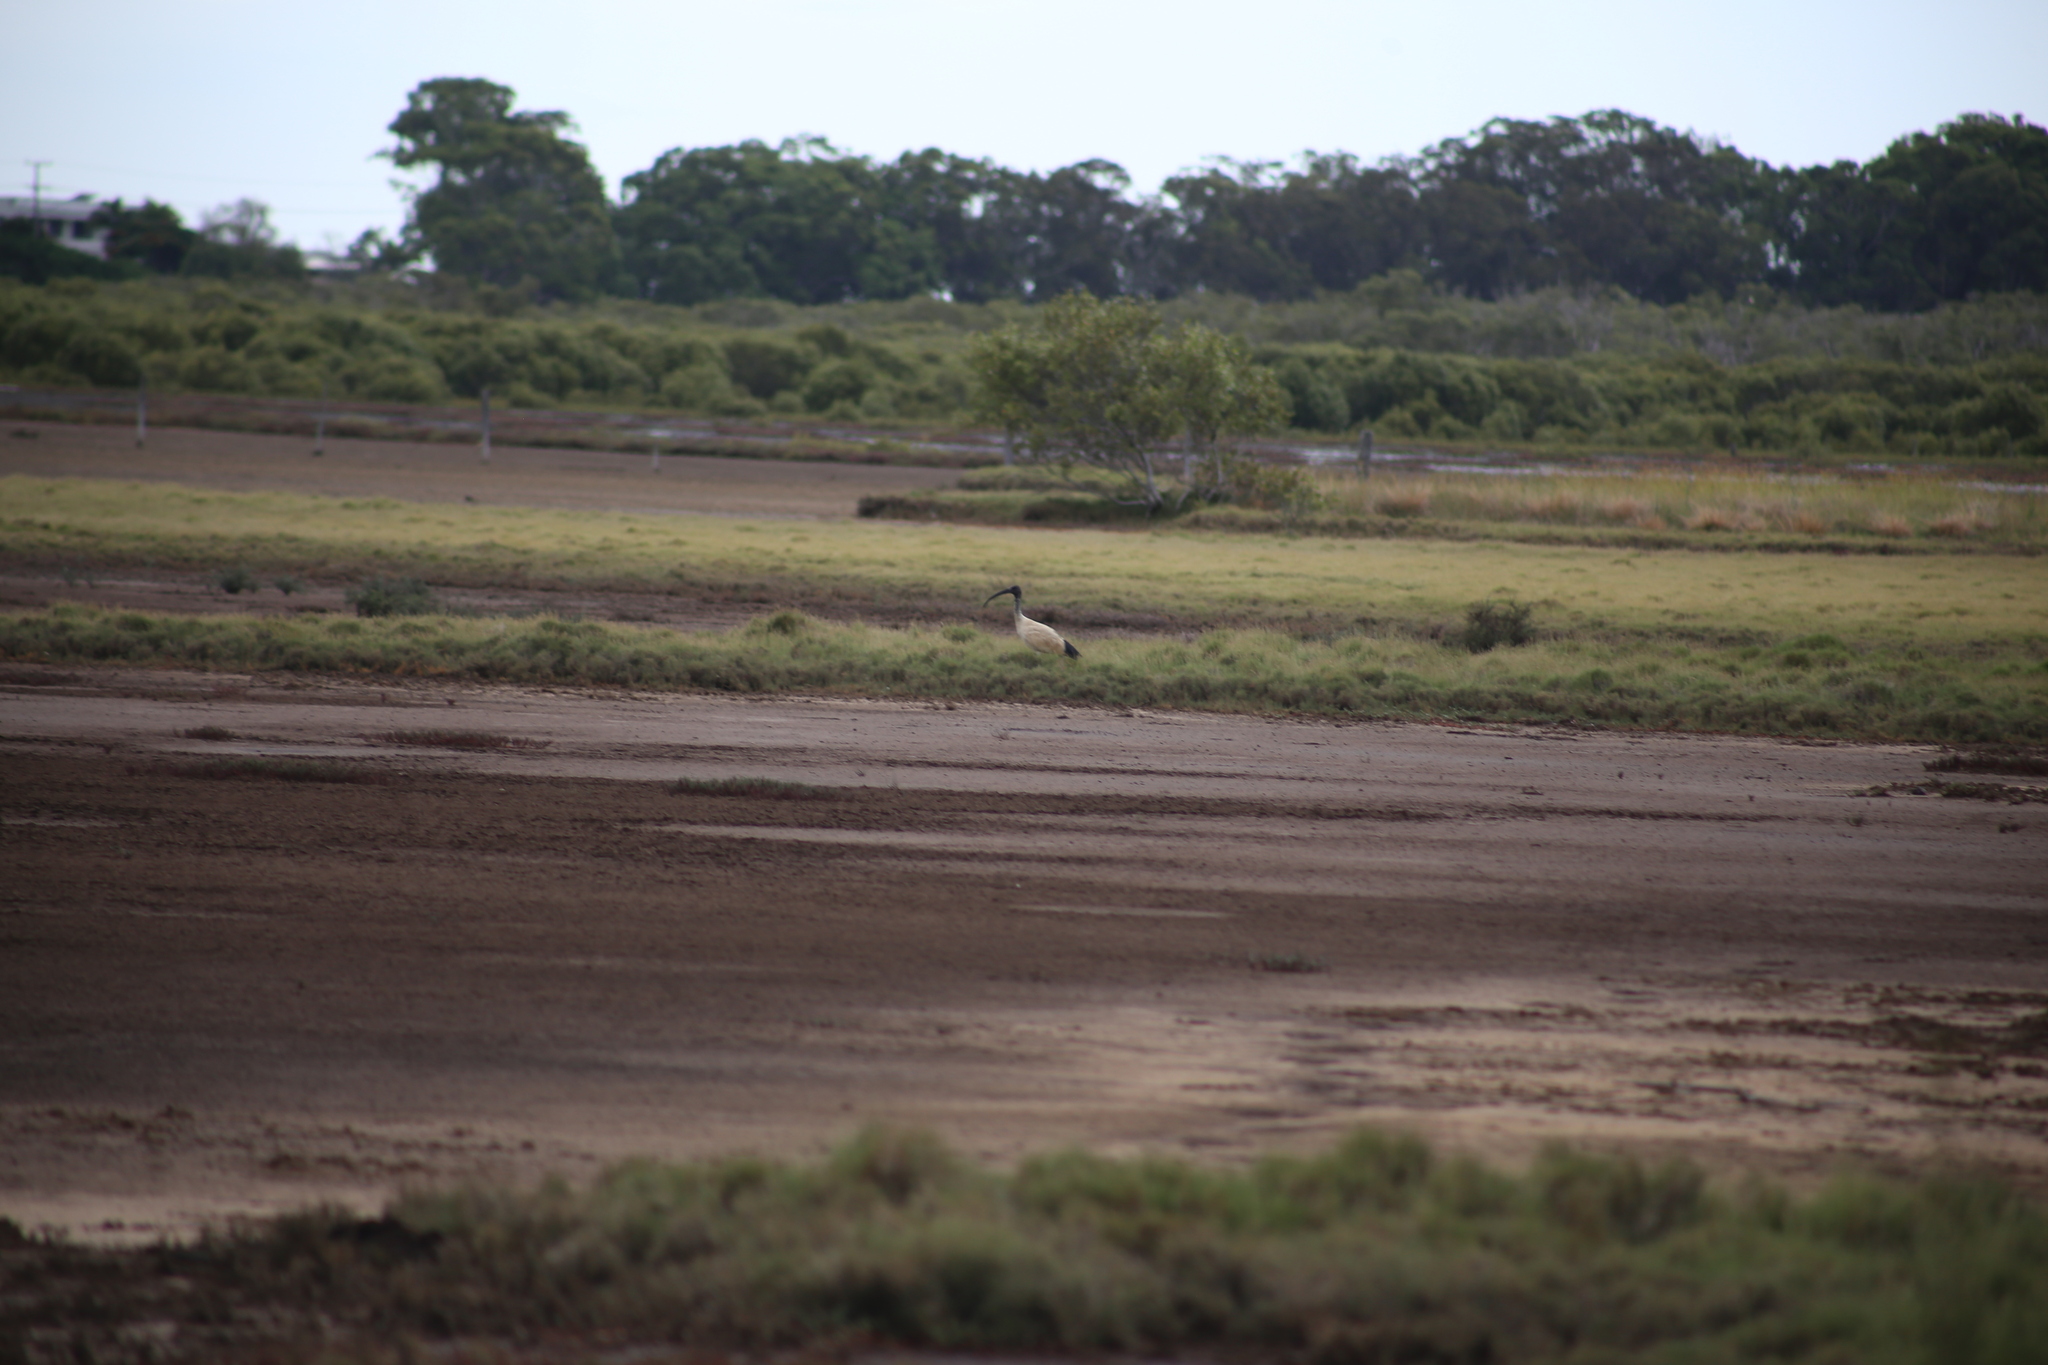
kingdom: Animalia
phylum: Chordata
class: Aves
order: Pelecaniformes
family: Threskiornithidae
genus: Threskiornis
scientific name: Threskiornis molucca
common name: Australian white ibis
